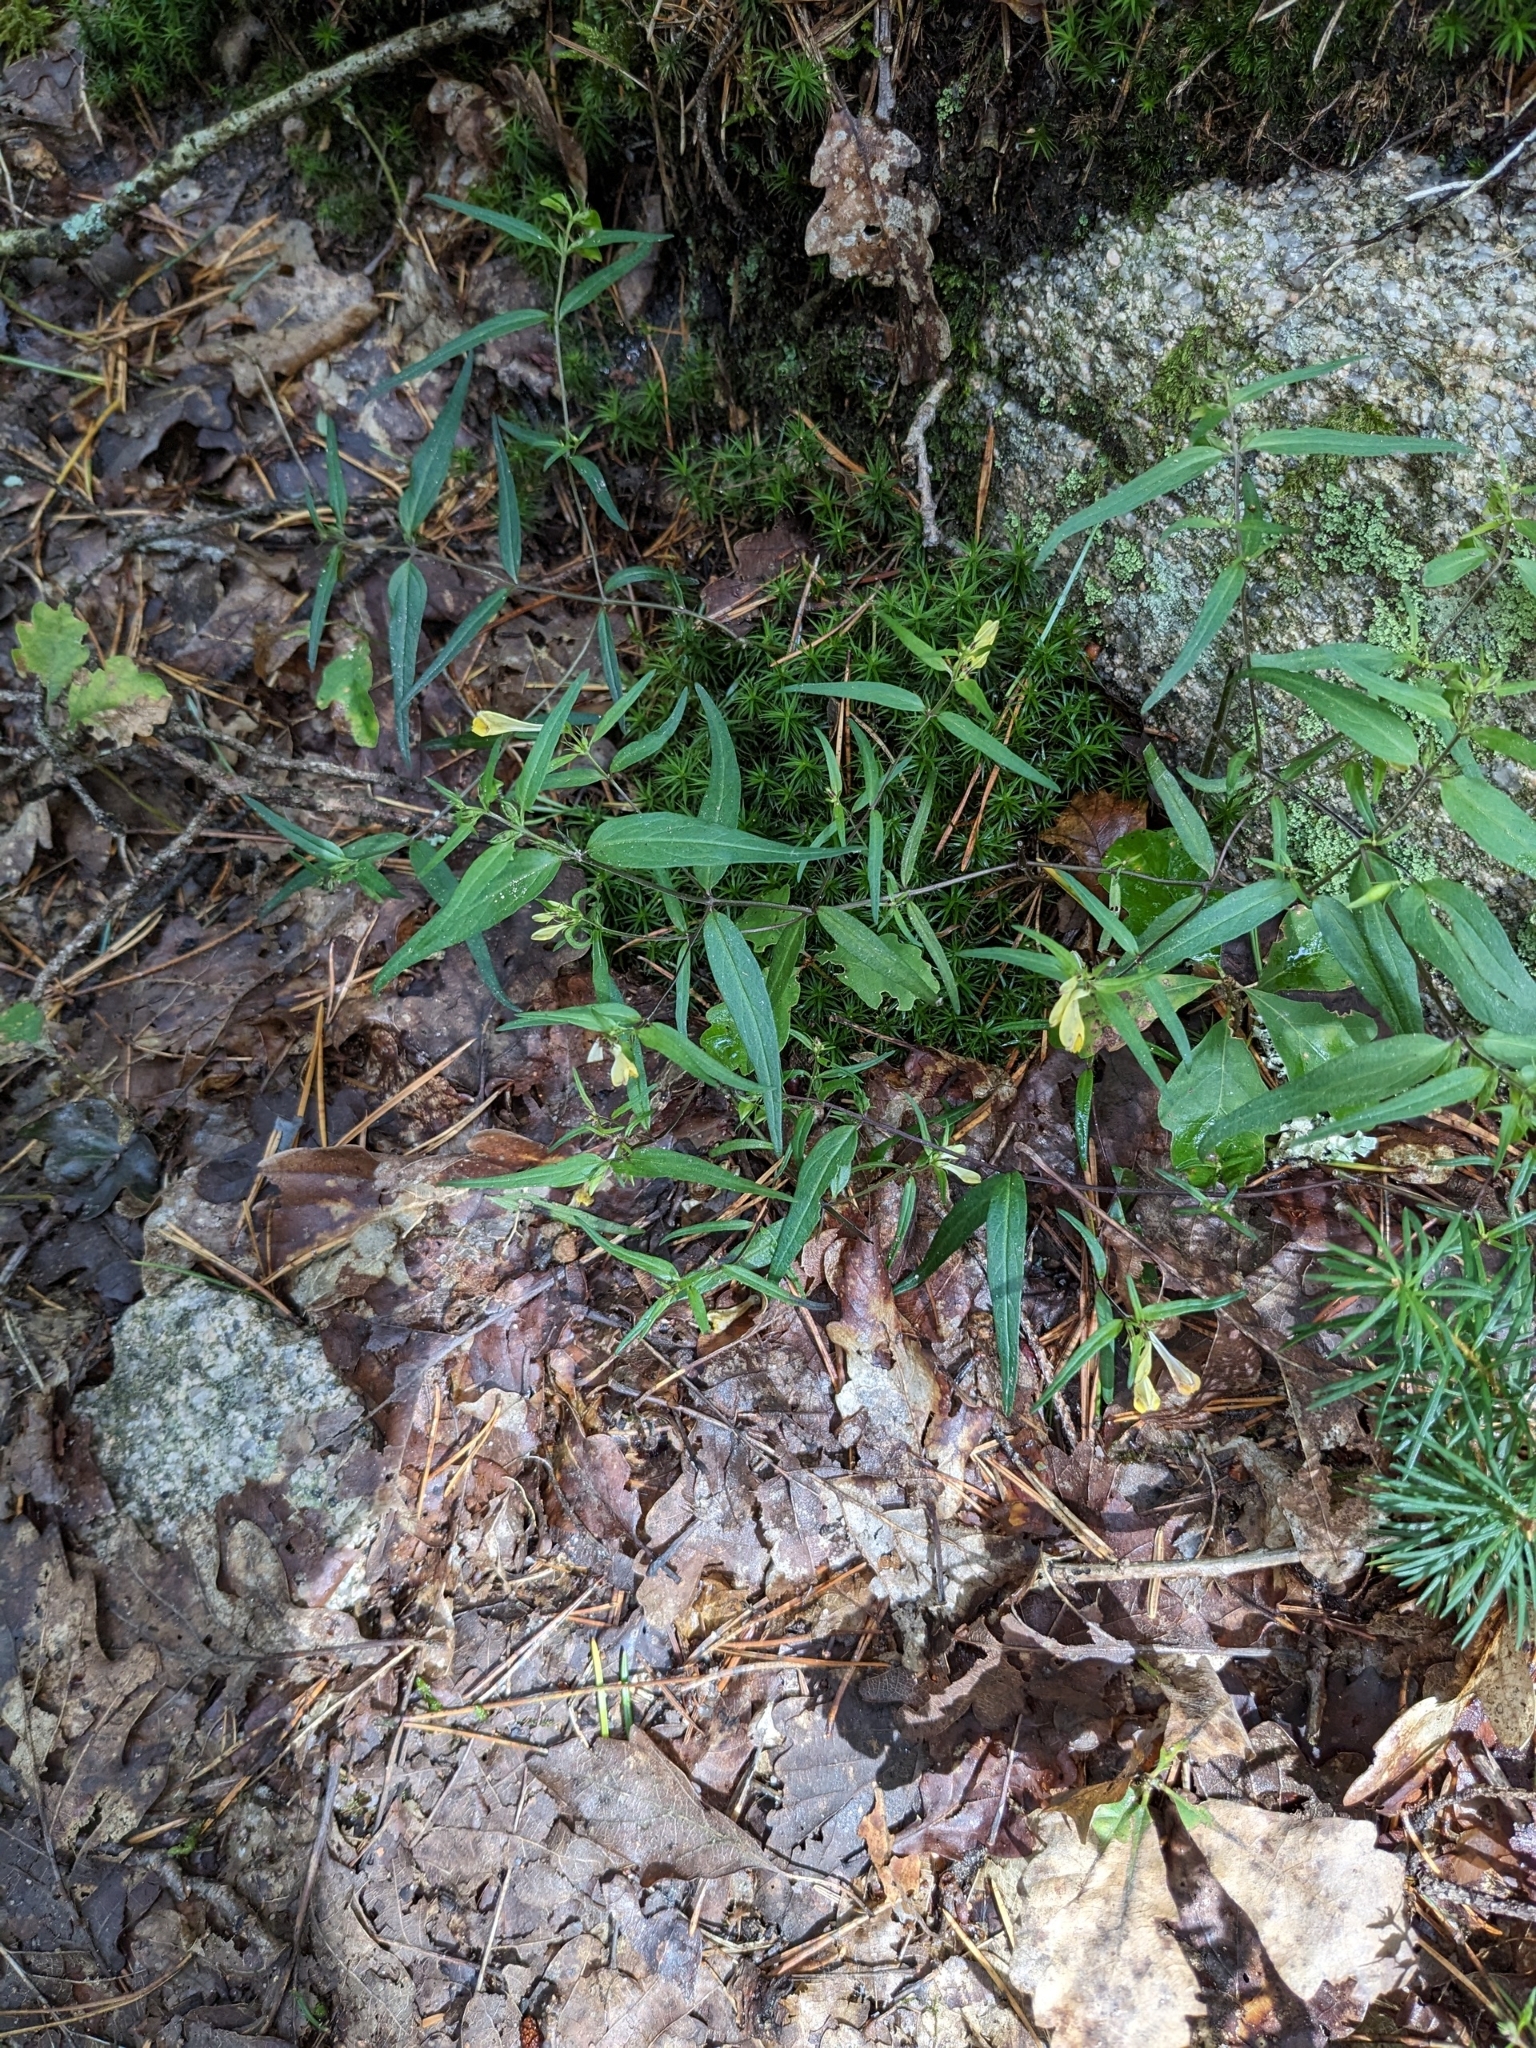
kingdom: Plantae
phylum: Tracheophyta
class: Magnoliopsida
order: Lamiales
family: Orobanchaceae
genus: Melampyrum
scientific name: Melampyrum pratense
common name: Common cow-wheat
